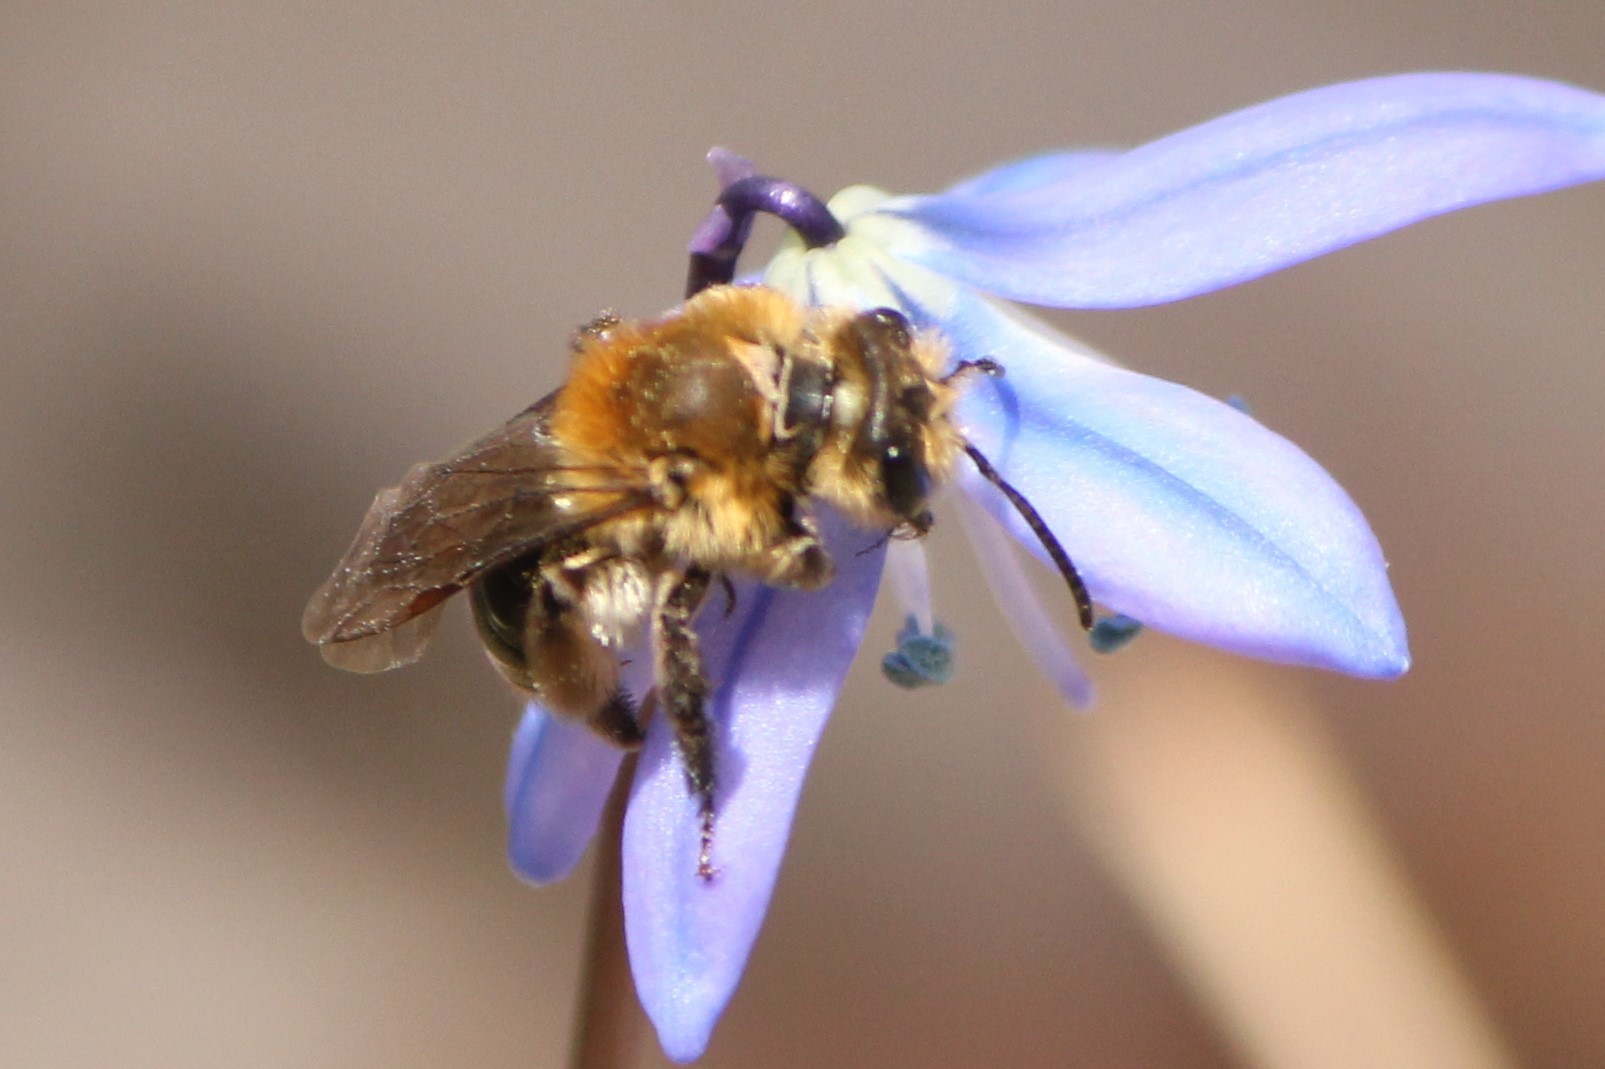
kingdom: Animalia
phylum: Arthropoda
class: Insecta
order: Hymenoptera
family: Andrenidae
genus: Andrena
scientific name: Andrena dunningi
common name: Dunning's miner
